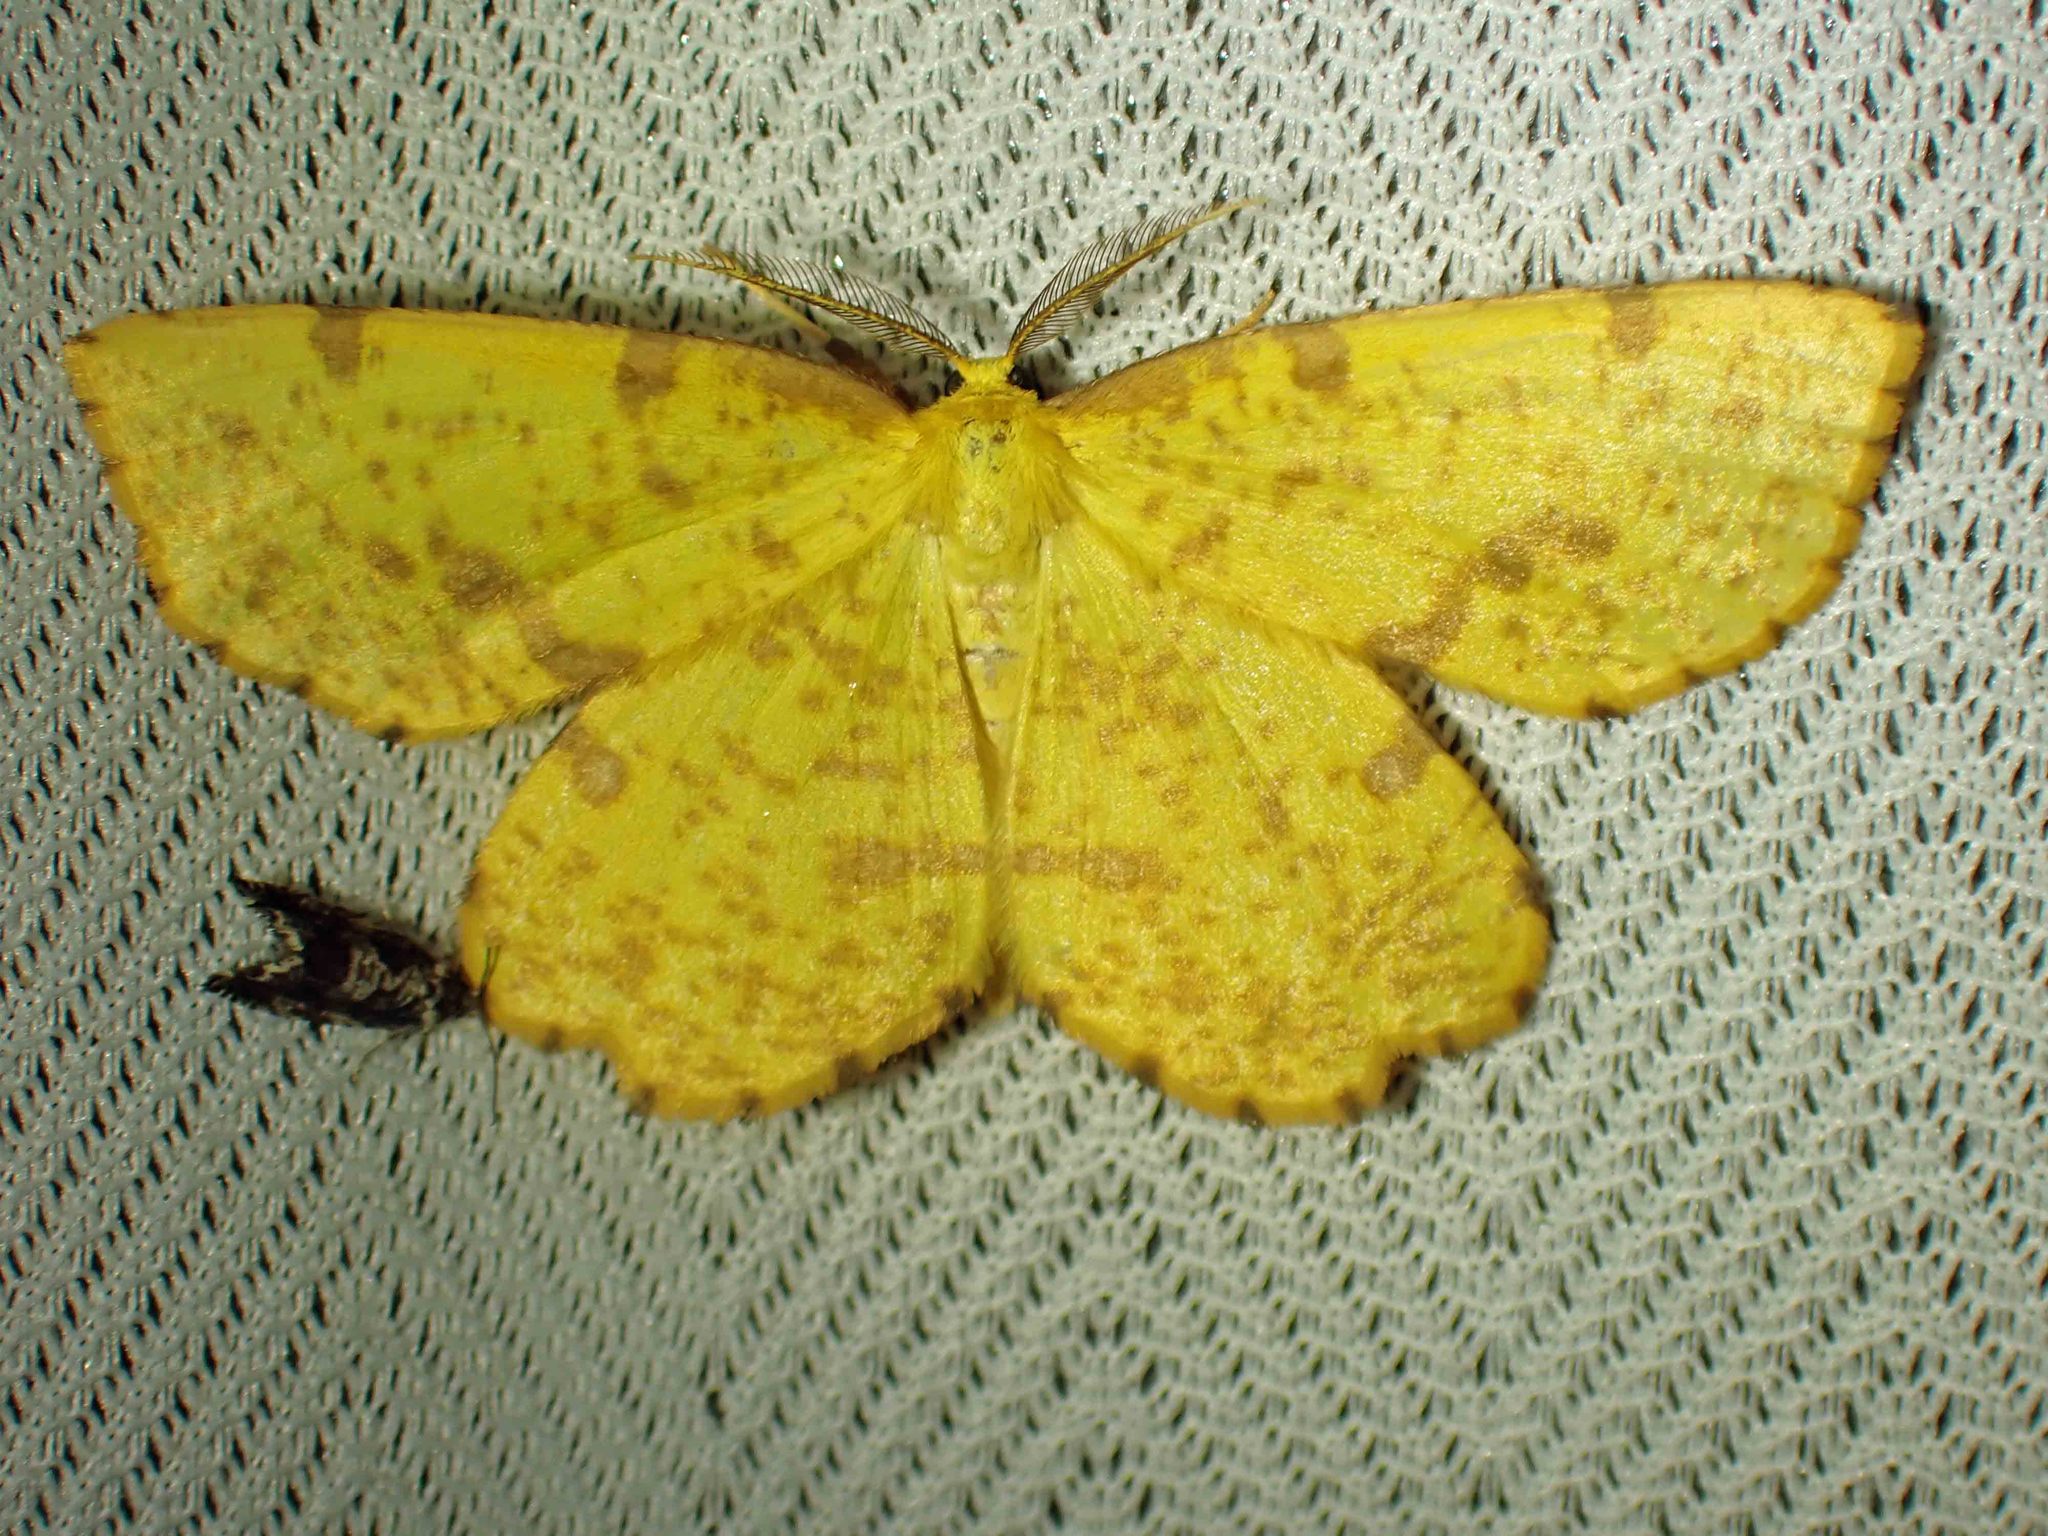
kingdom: Animalia
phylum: Arthropoda
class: Insecta
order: Lepidoptera
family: Geometridae
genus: Xanthotype
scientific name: Xanthotype
